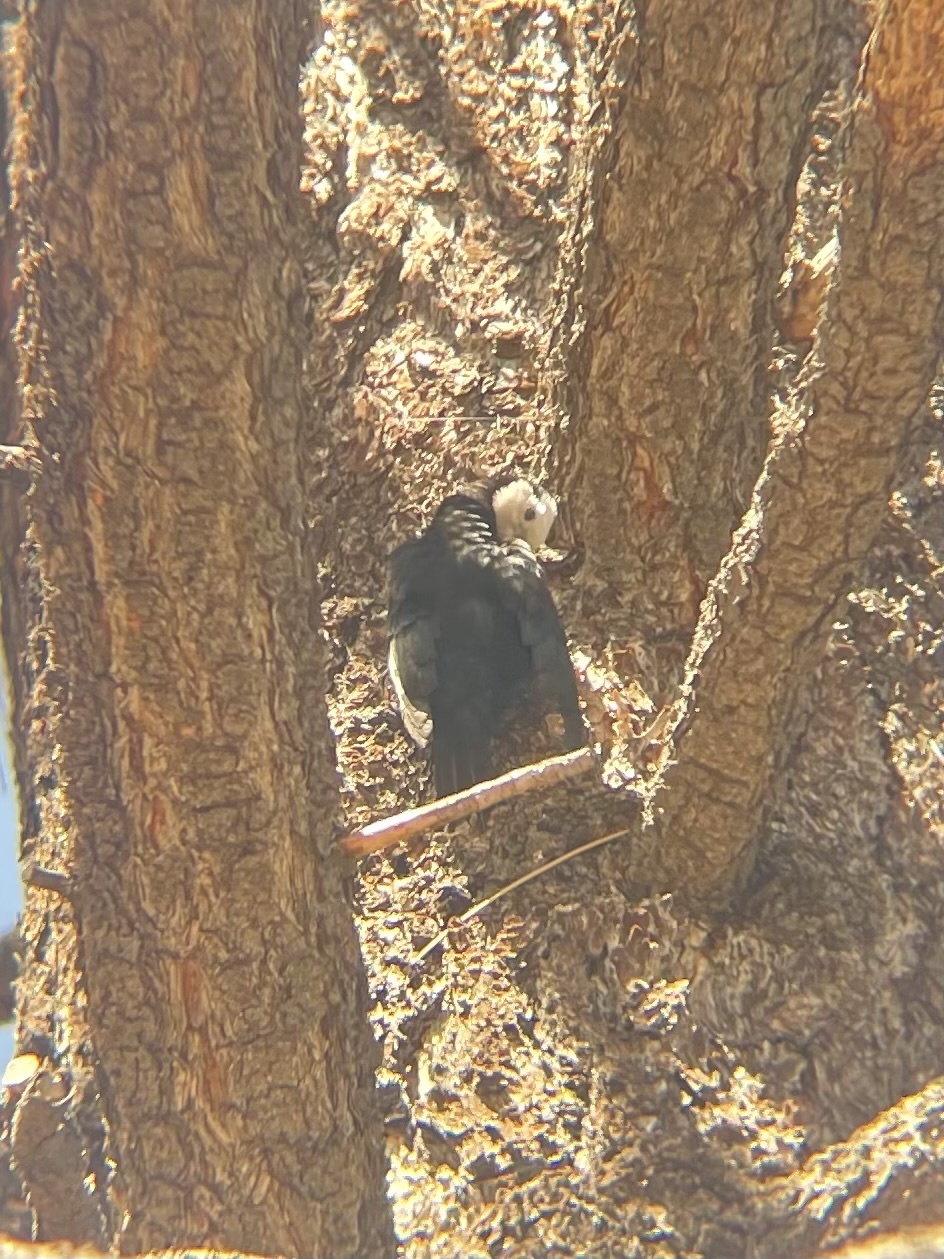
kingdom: Animalia
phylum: Chordata
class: Aves
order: Piciformes
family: Picidae
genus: Leuconotopicus
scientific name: Leuconotopicus albolarvatus
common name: White-headed woodpecker
